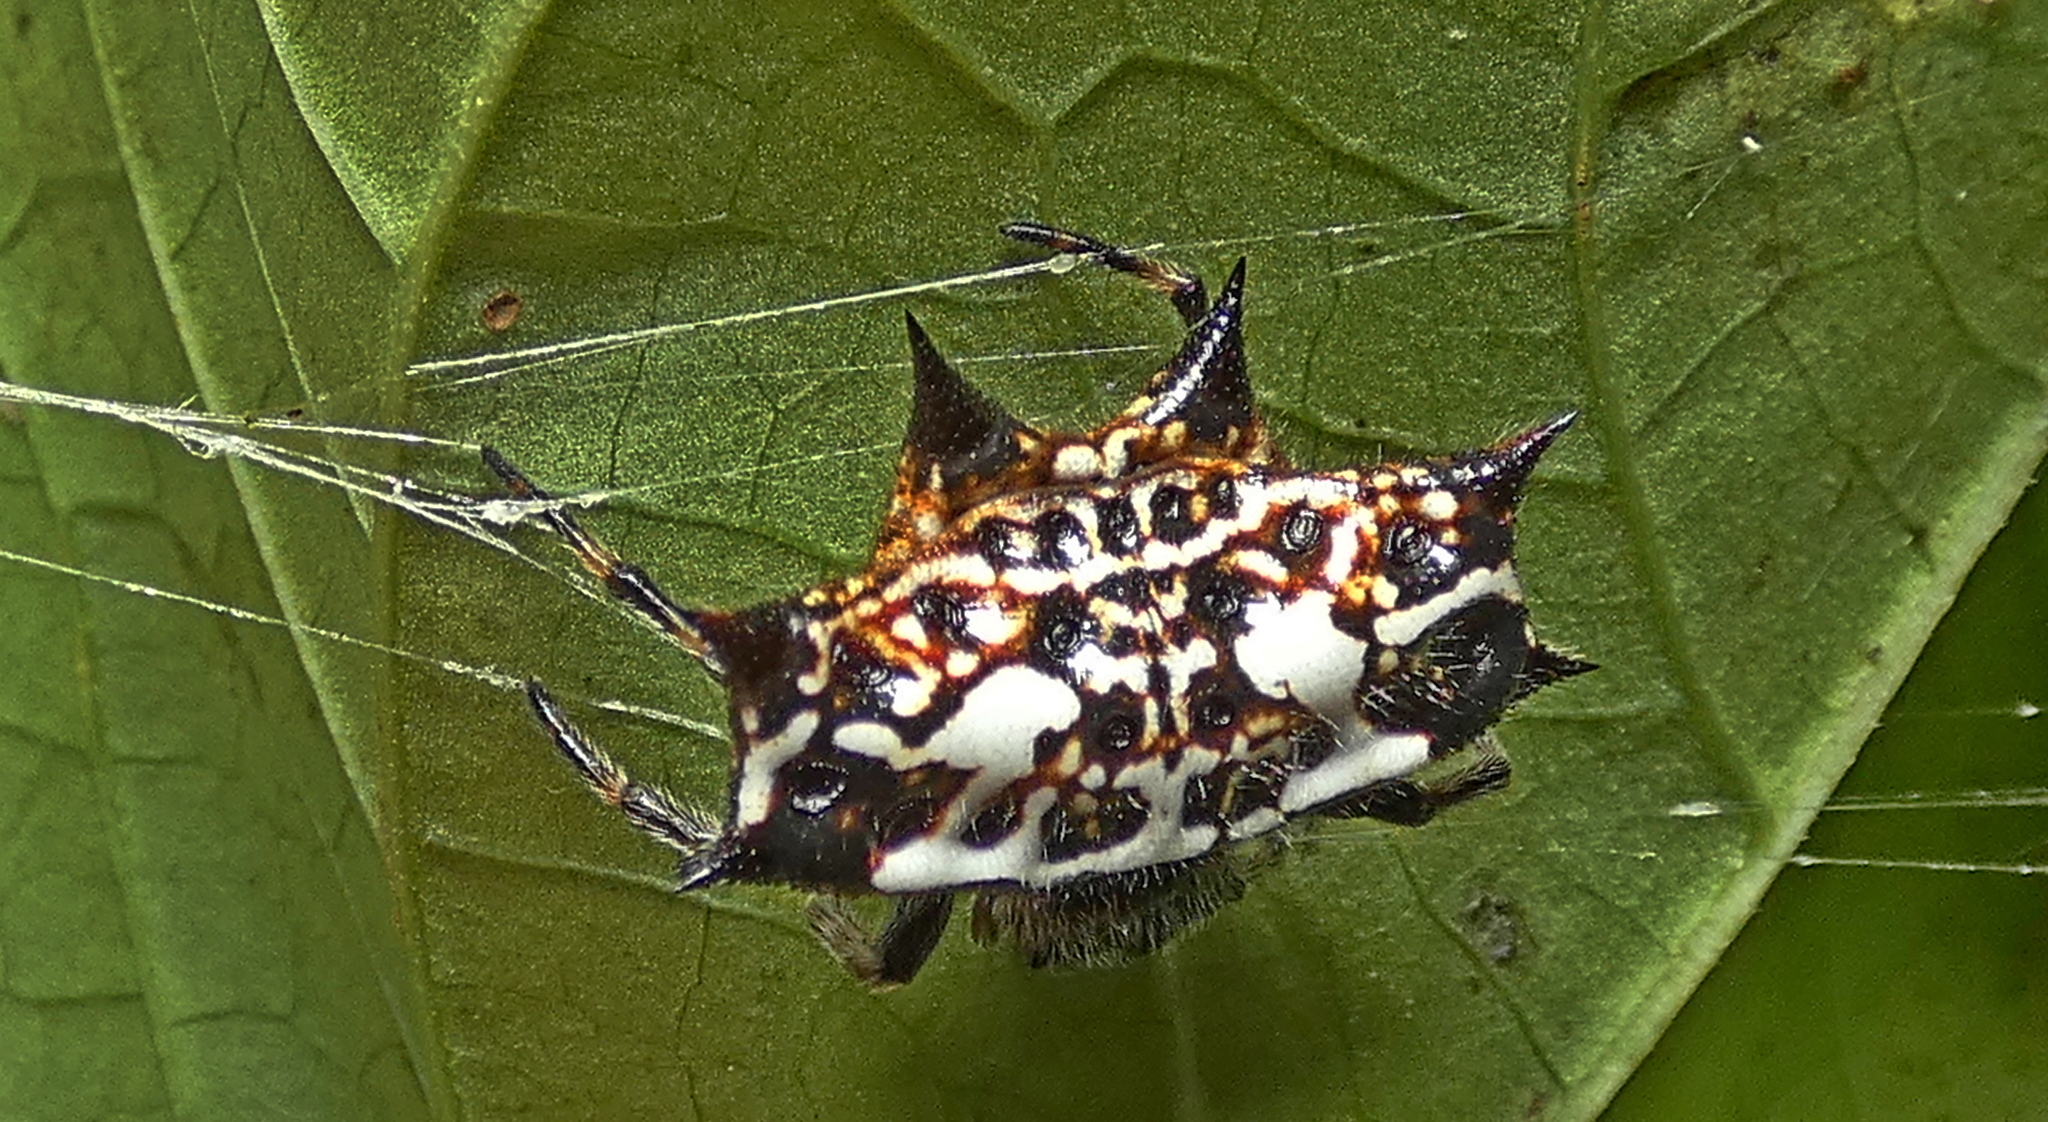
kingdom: Animalia
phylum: Arthropoda
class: Arachnida
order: Araneae
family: Araneidae
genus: Gasteracantha
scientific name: Gasteracantha cancriformis
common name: Orb weavers
